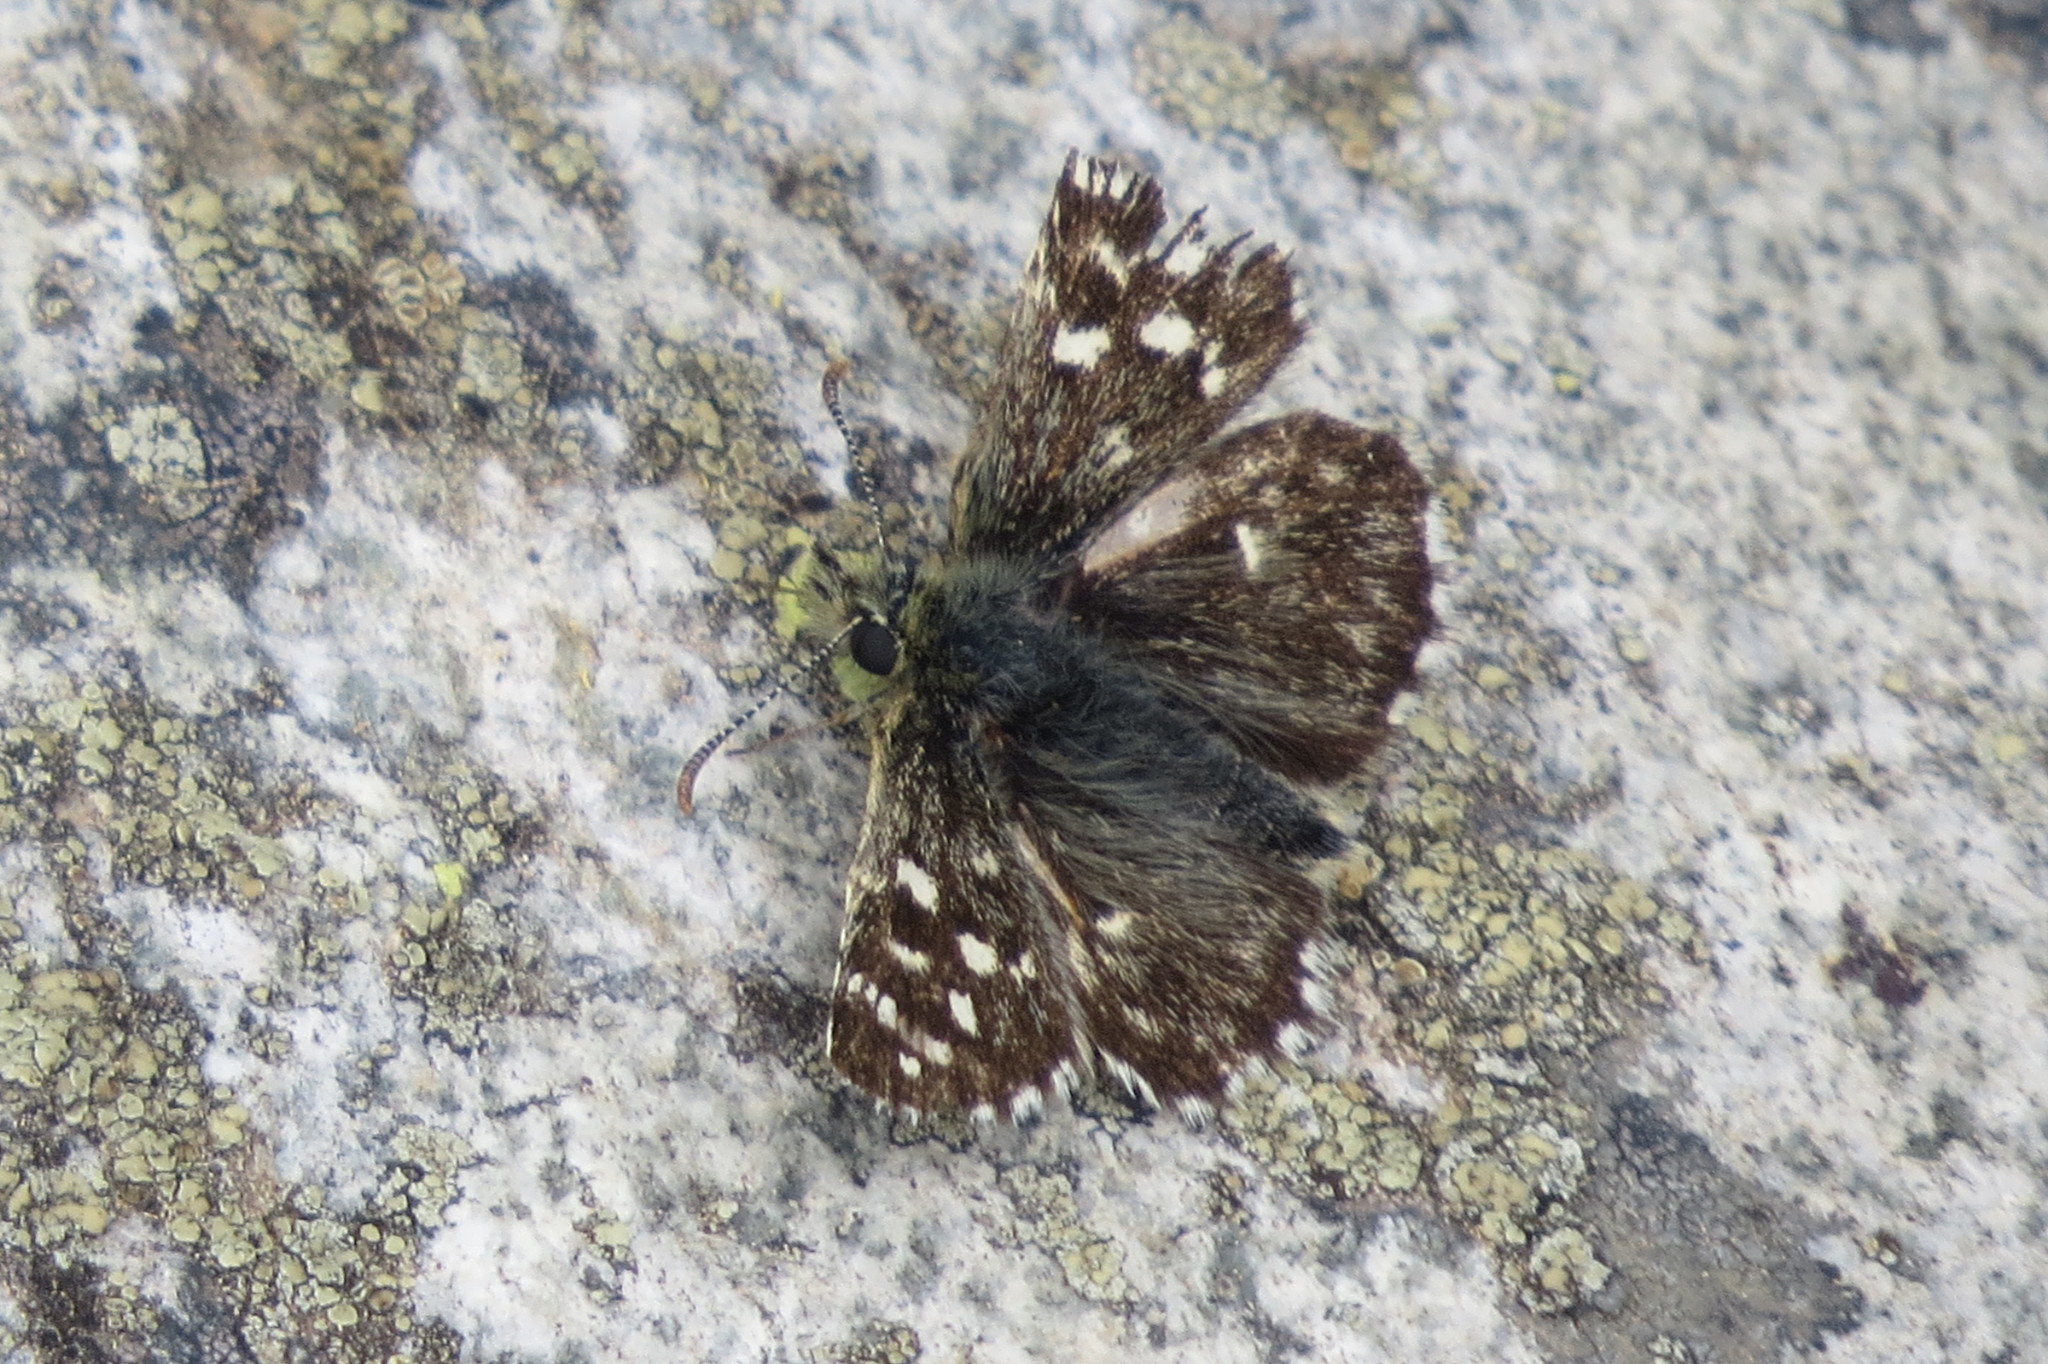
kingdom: Animalia
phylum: Arthropoda
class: Insecta
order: Lepidoptera
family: Hesperiidae
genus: Pyrgus
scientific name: Pyrgus malvoides
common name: Southern grizzled skipper
